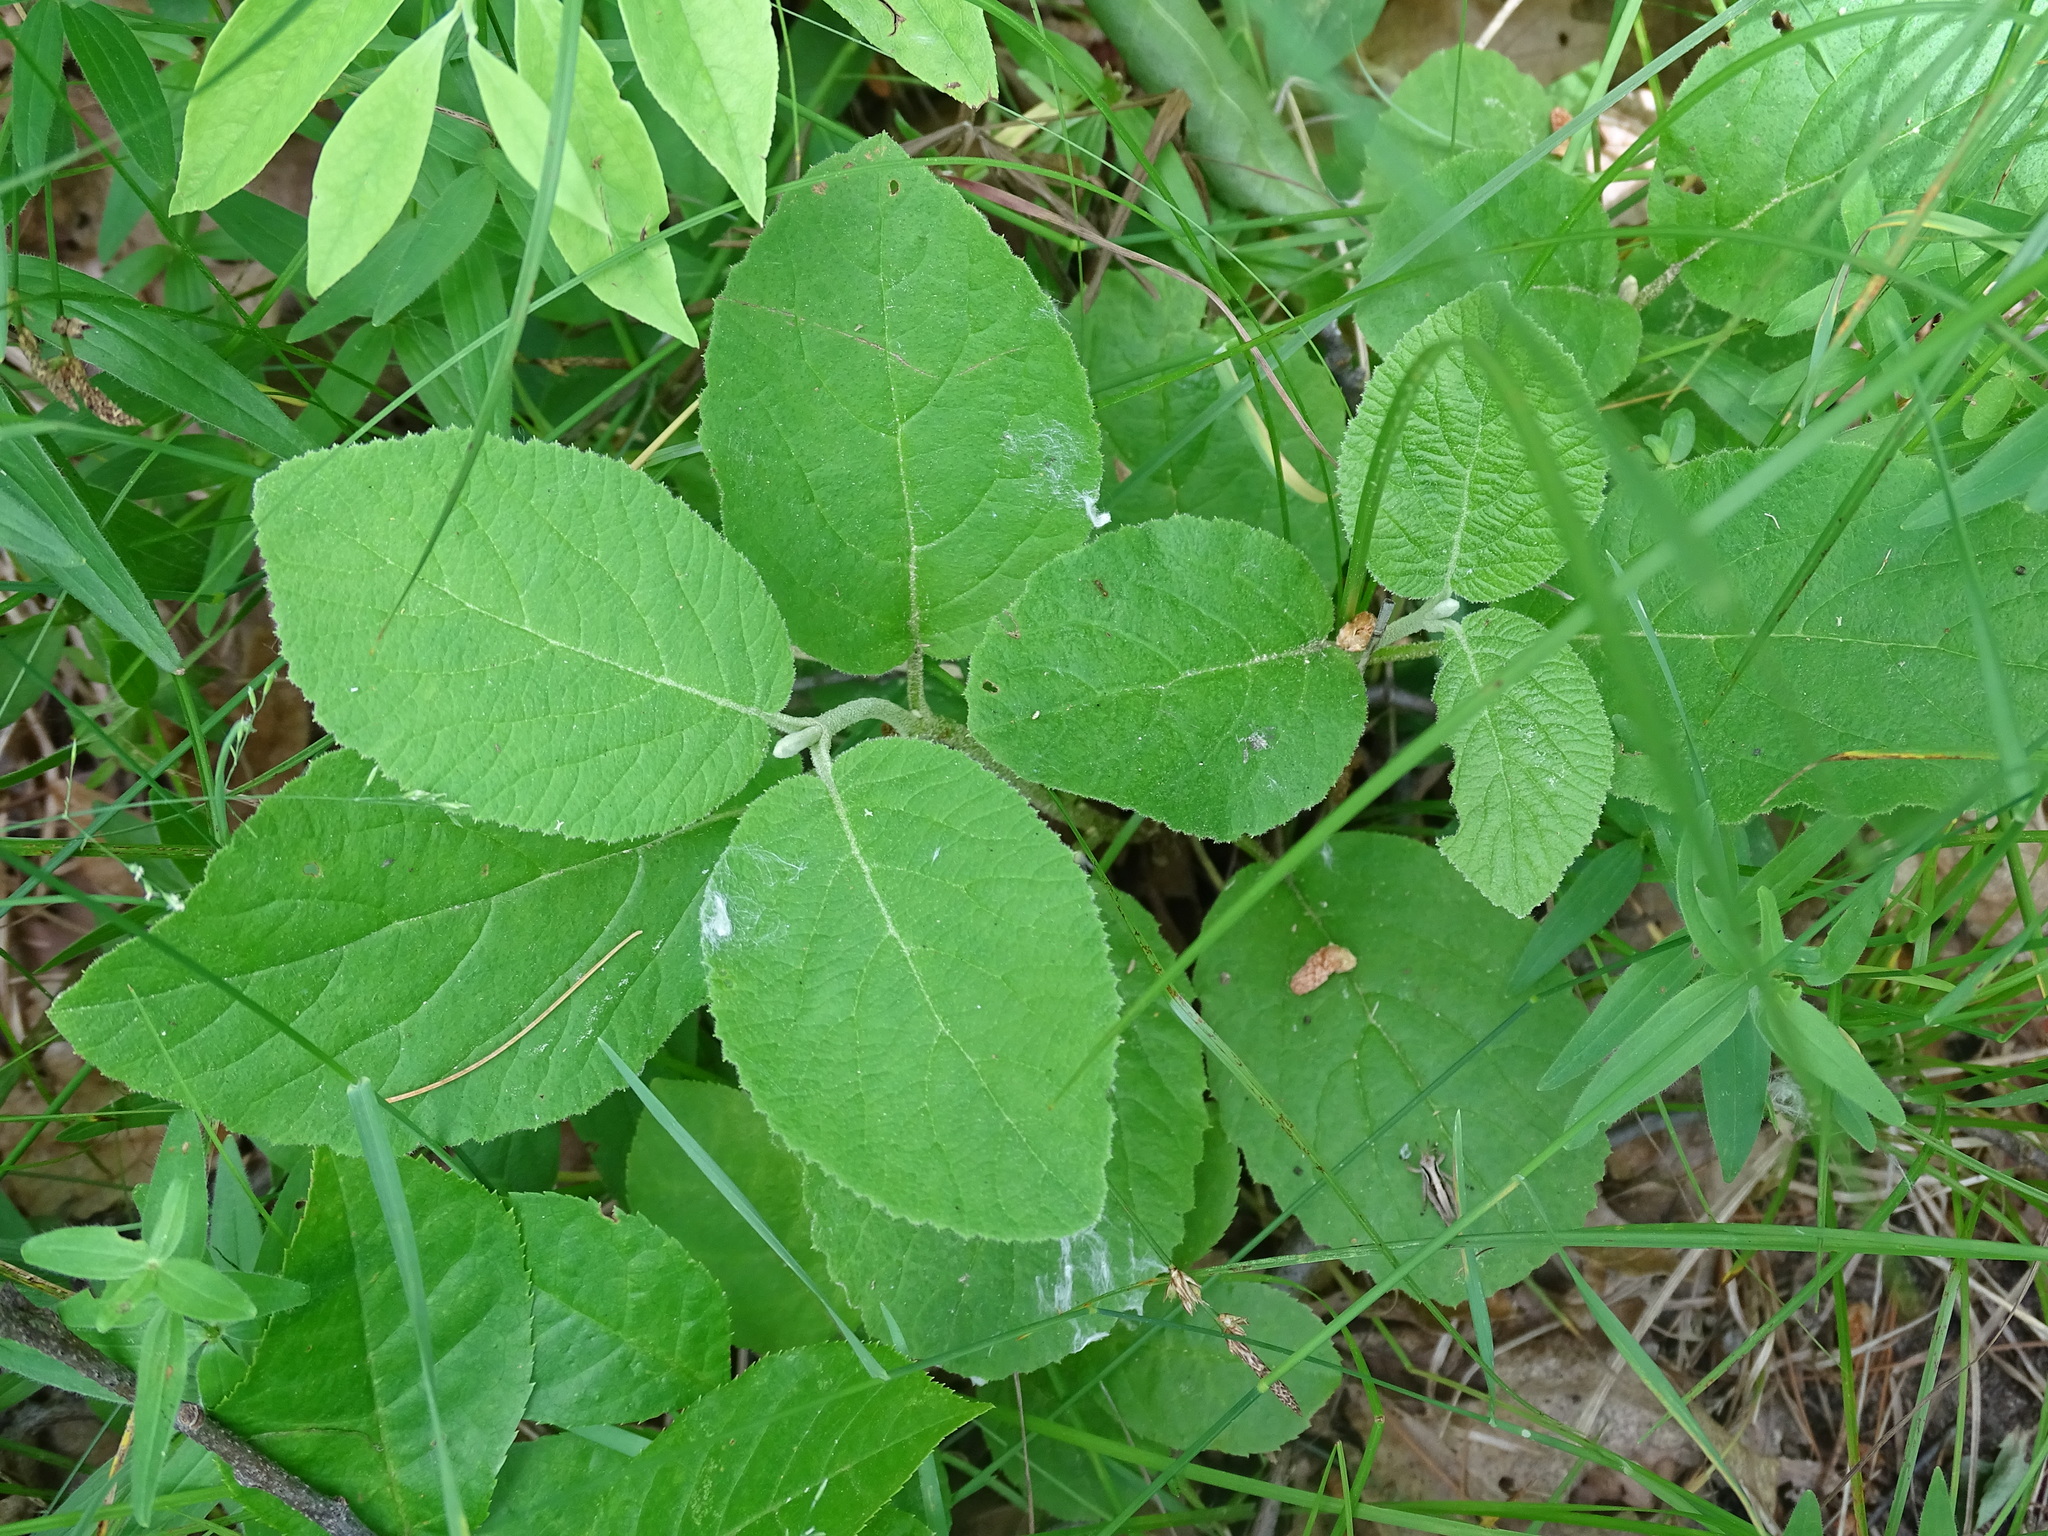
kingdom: Plantae
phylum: Tracheophyta
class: Magnoliopsida
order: Dipsacales
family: Viburnaceae
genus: Viburnum
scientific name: Viburnum lantana
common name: Wayfaring tree
